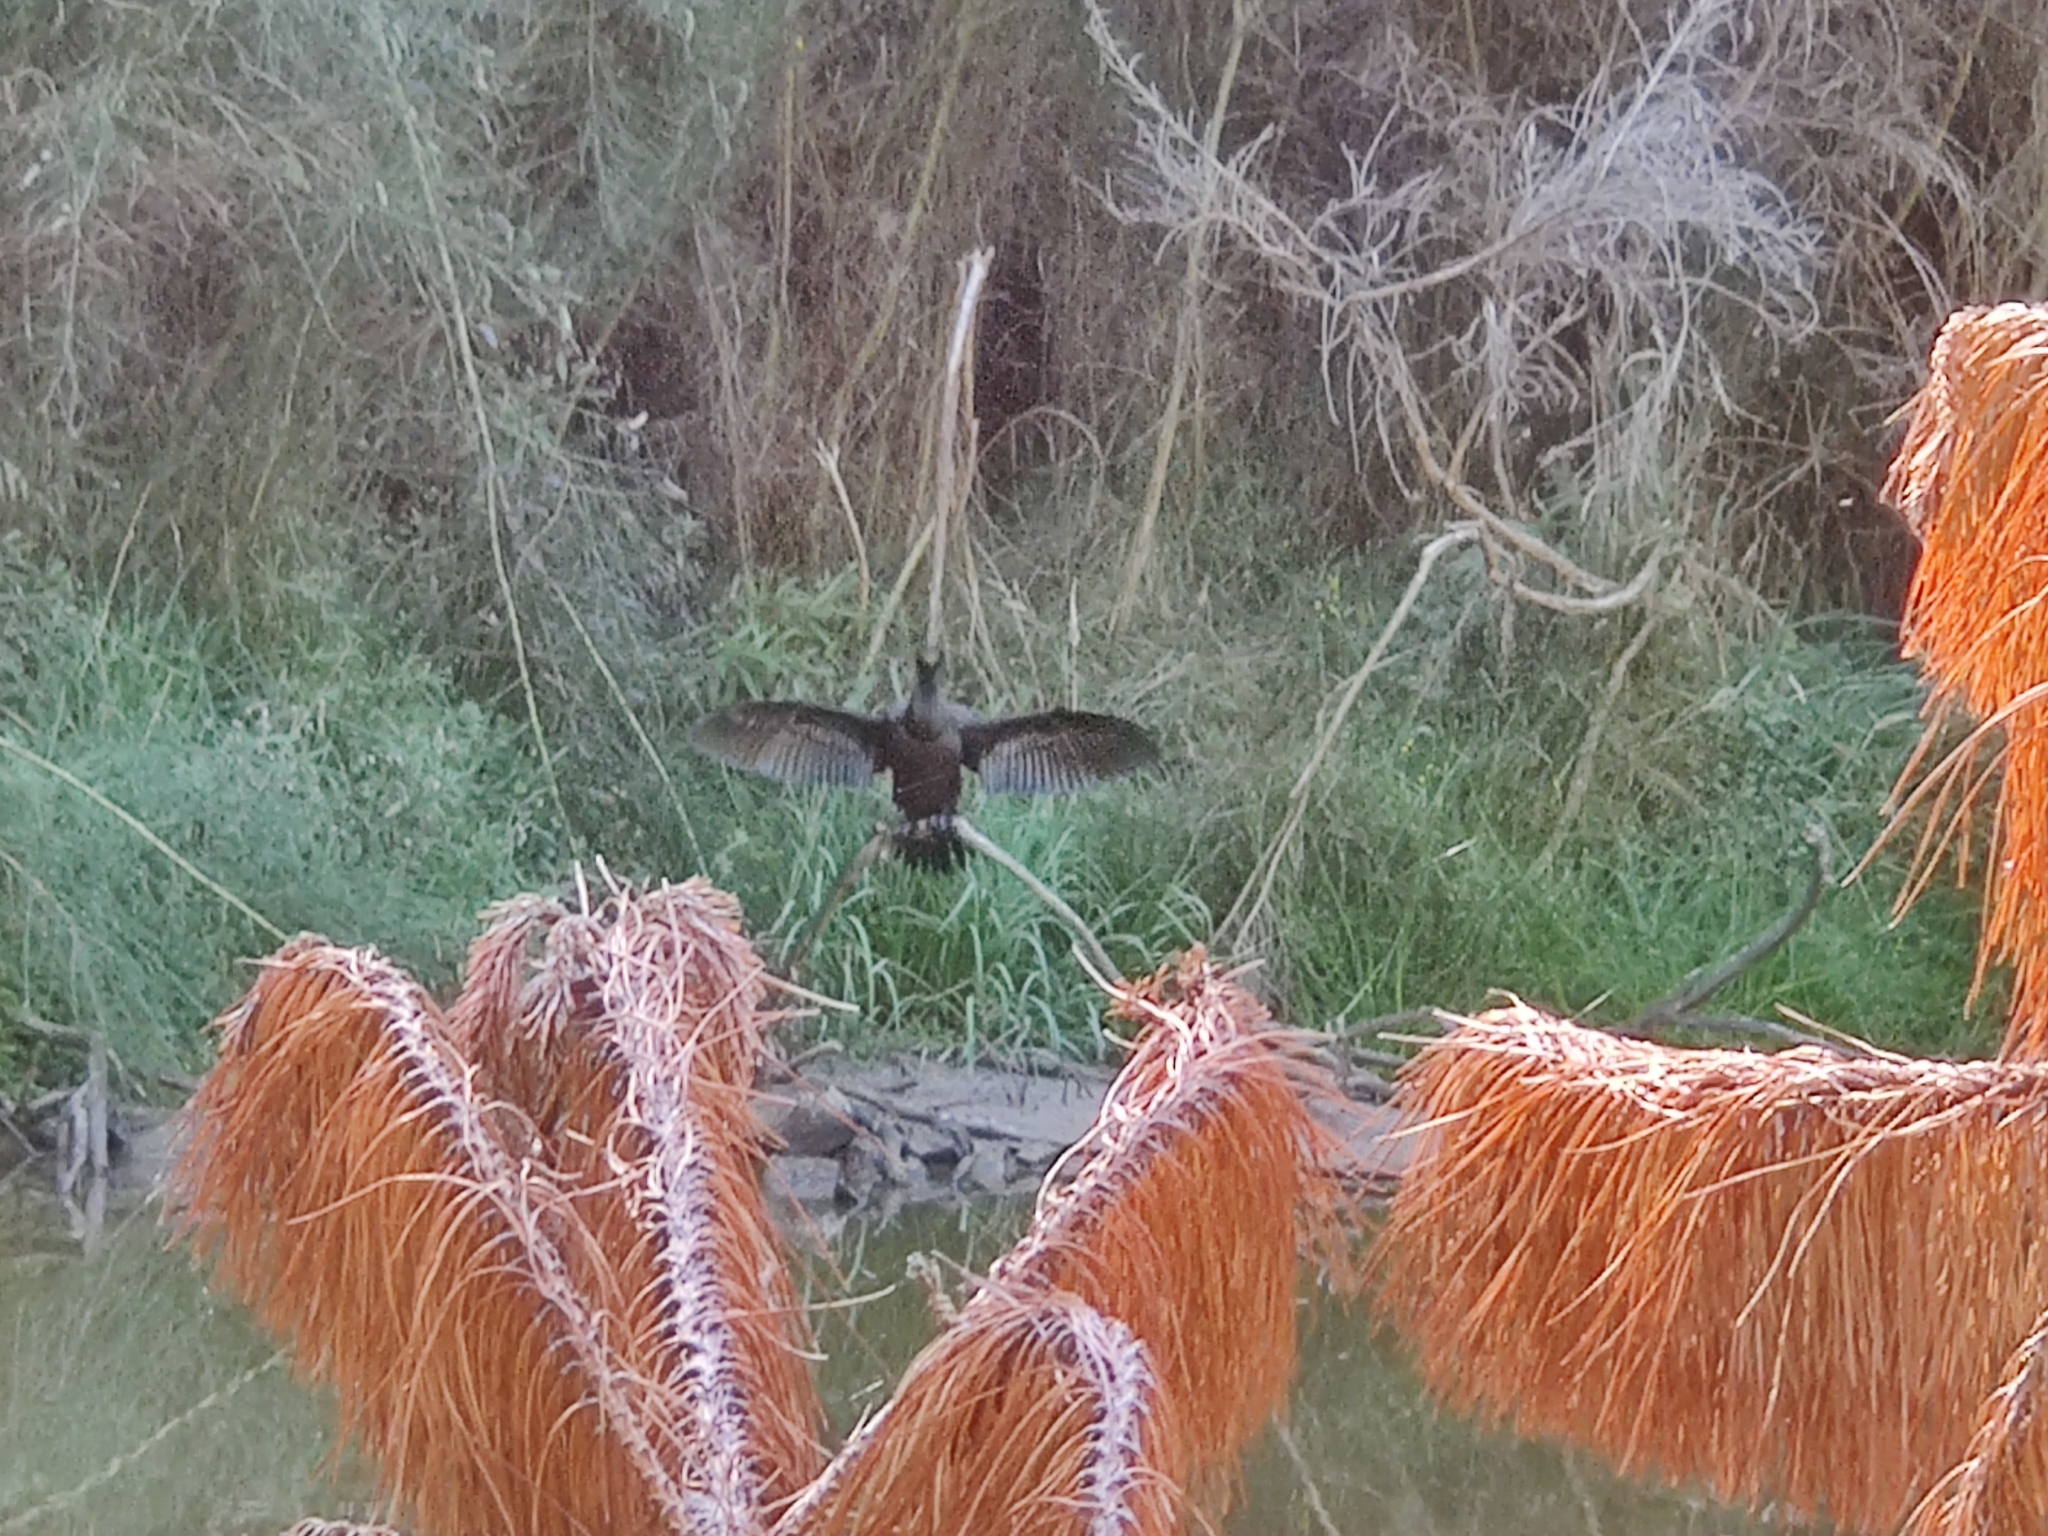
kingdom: Animalia
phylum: Chordata
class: Aves
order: Suliformes
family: Phalacrocoracidae
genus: Microcarbo
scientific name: Microcarbo melanoleucos
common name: Little pied cormorant
